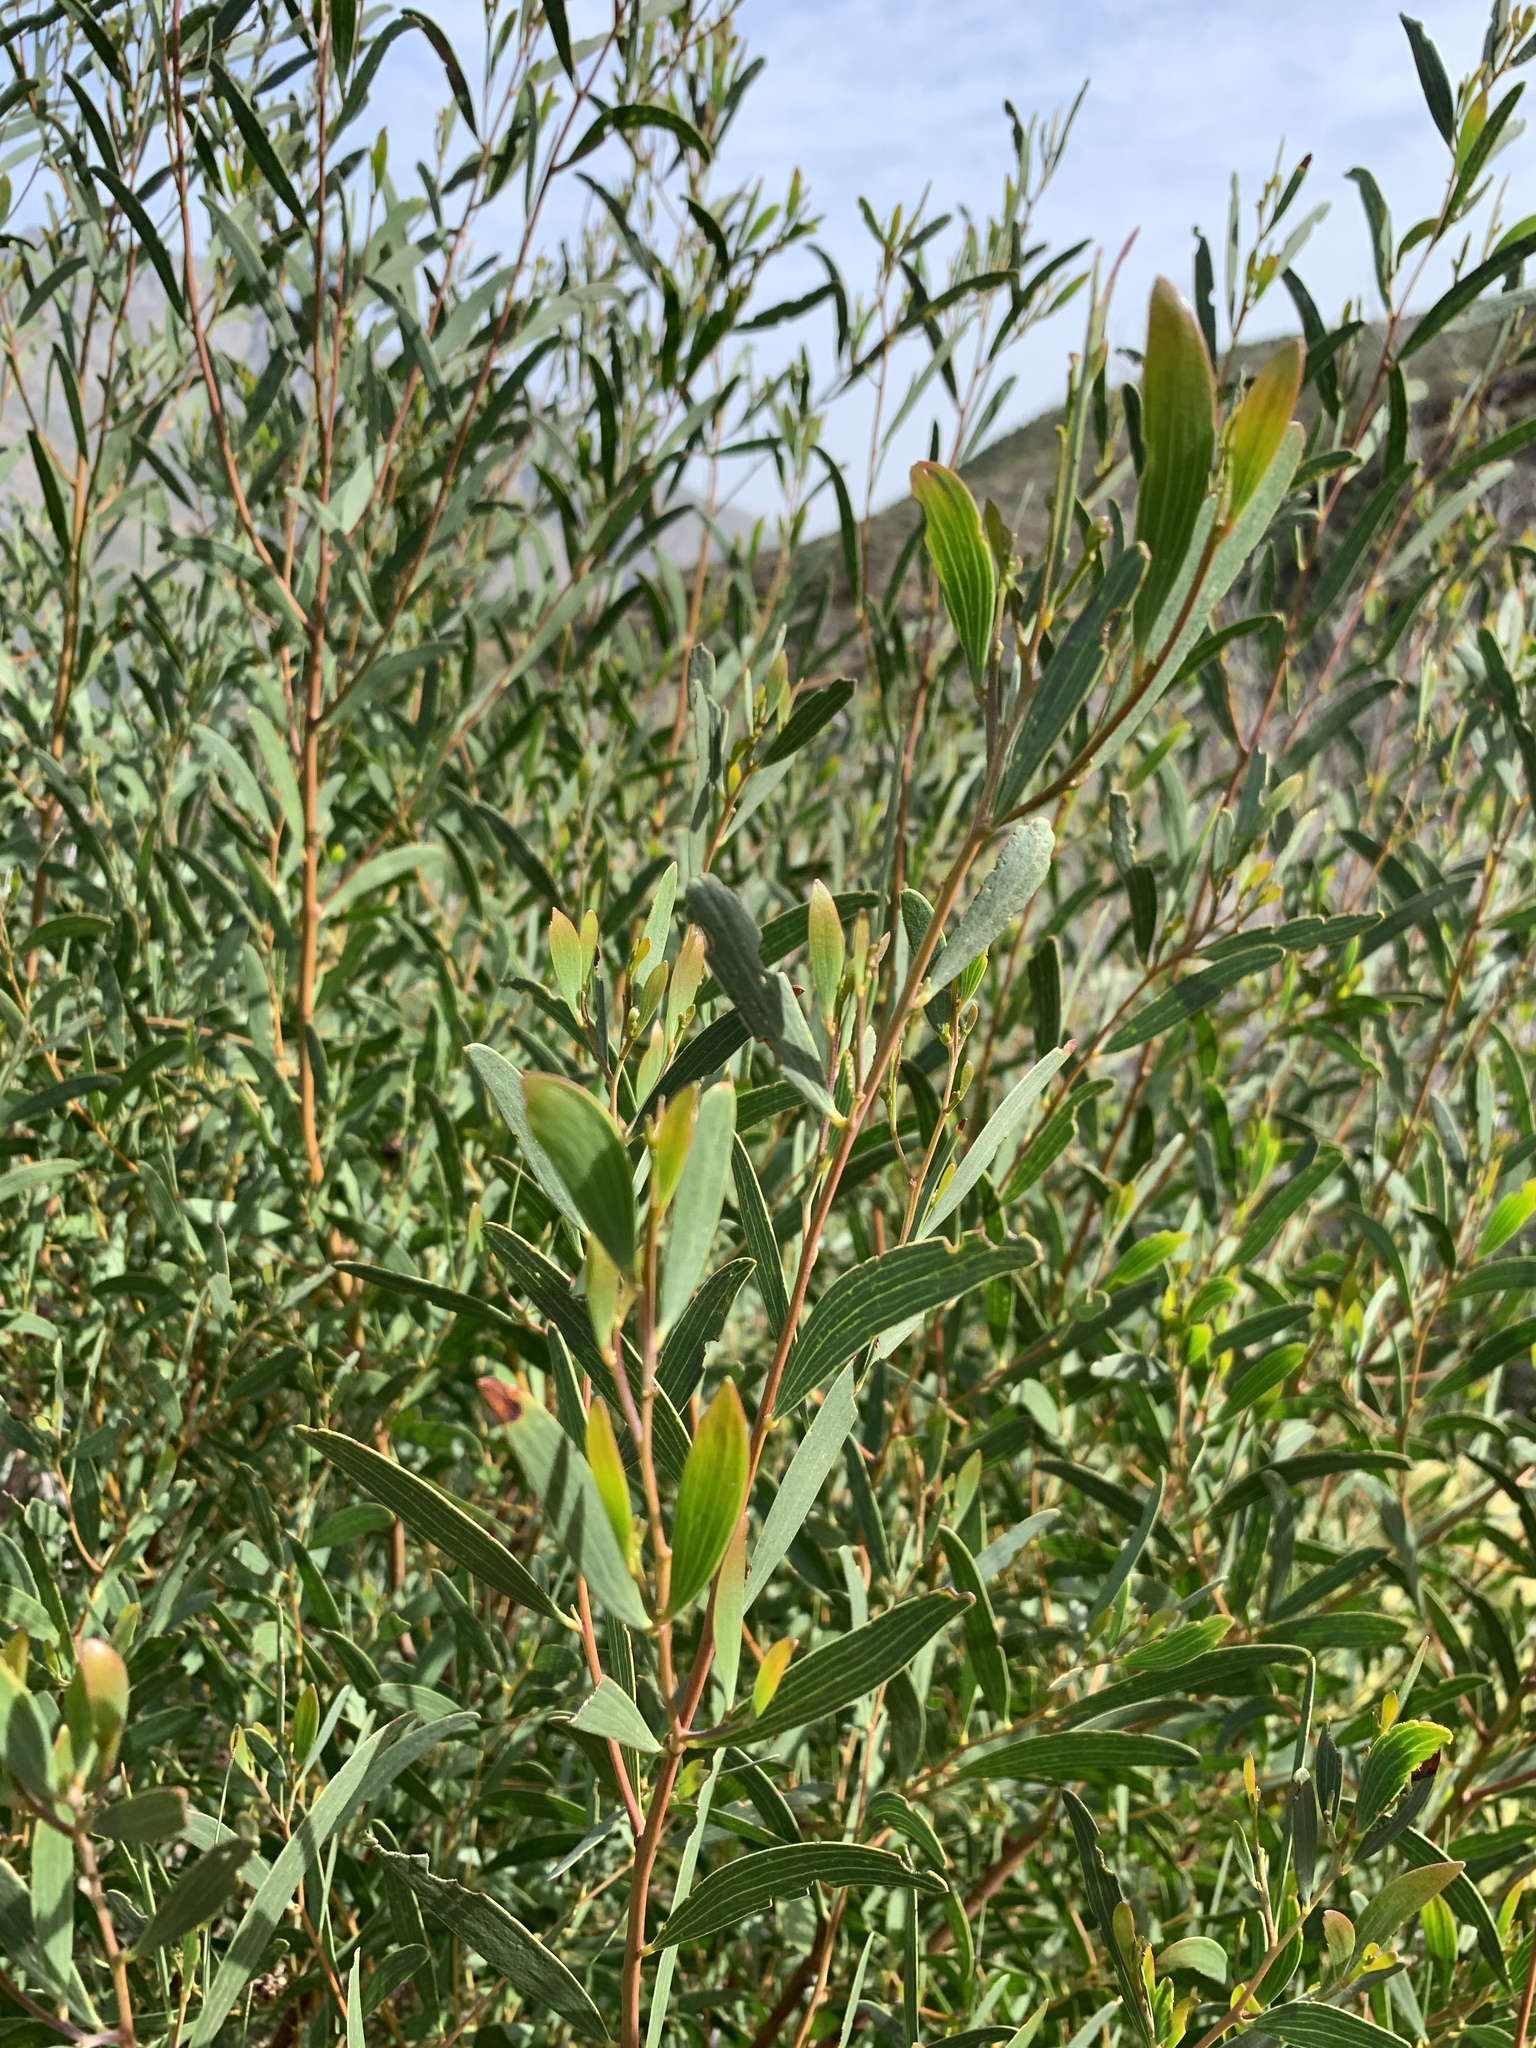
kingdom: Plantae
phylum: Tracheophyta
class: Magnoliopsida
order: Fabales
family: Fabaceae
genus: Acacia
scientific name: Acacia cyclops
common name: Coastal wattle
